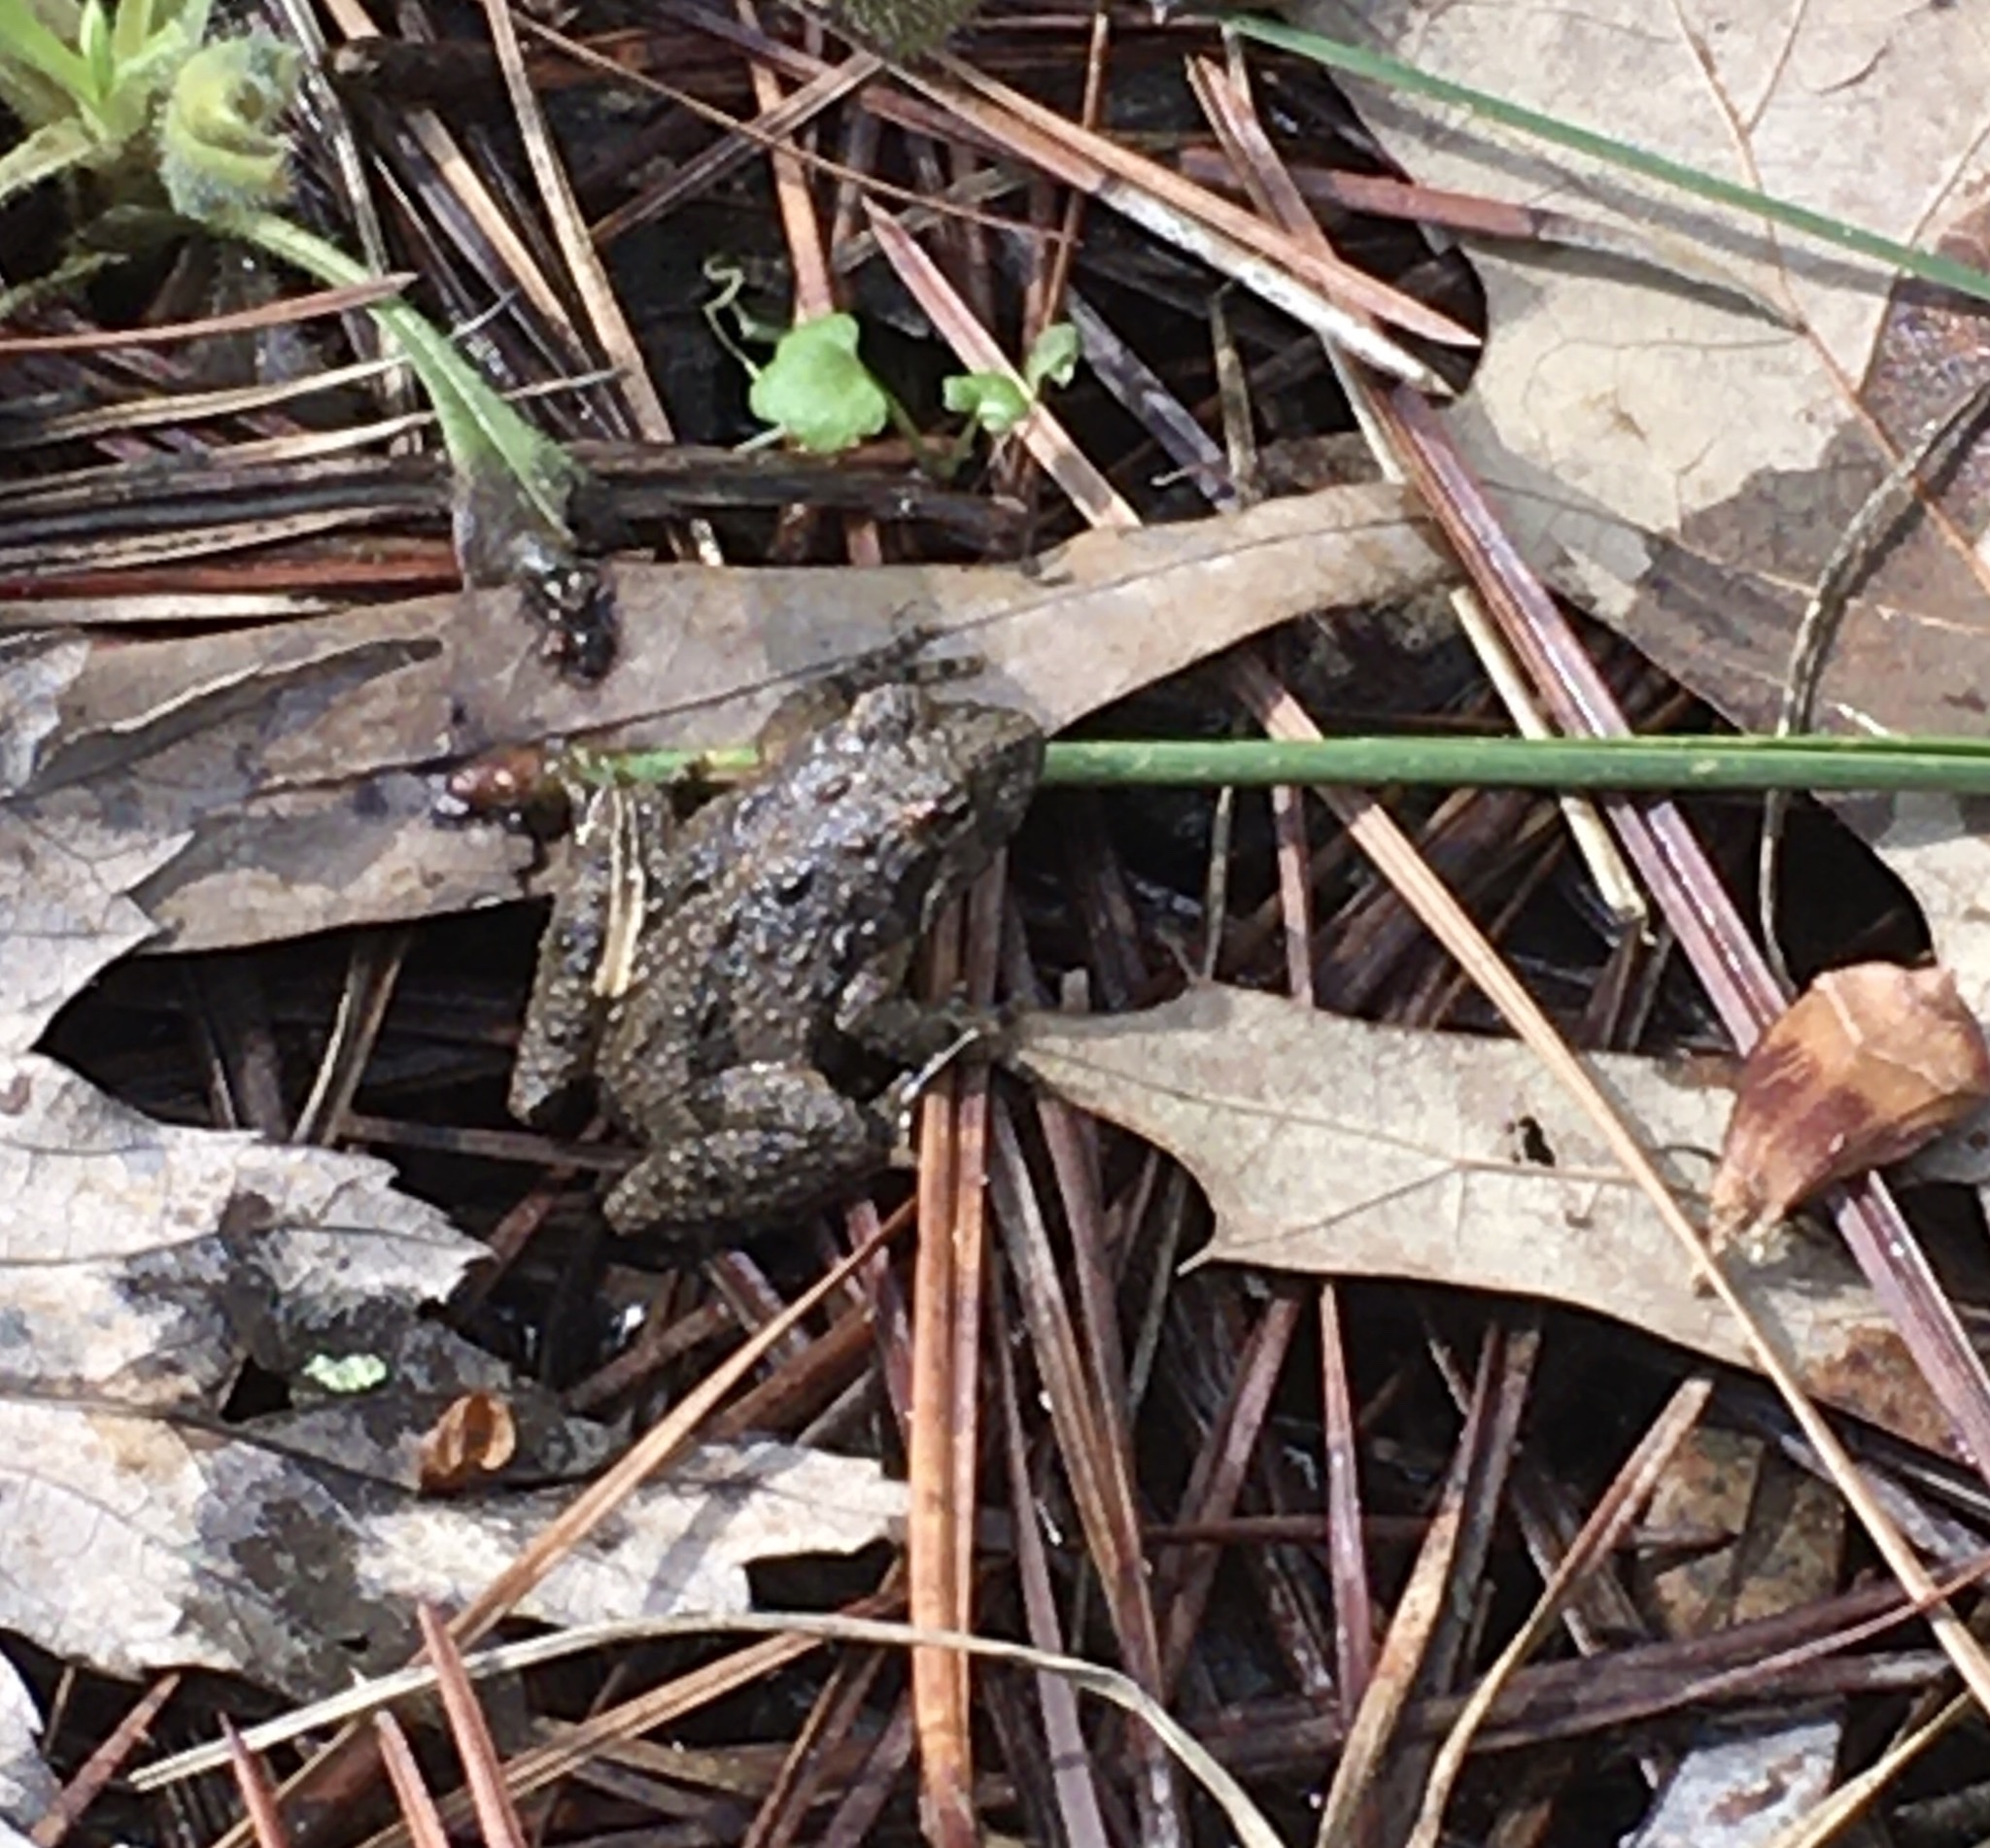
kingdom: Animalia
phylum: Chordata
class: Amphibia
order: Anura
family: Hylidae
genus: Acris
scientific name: Acris crepitans
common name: Northern cricket frog
